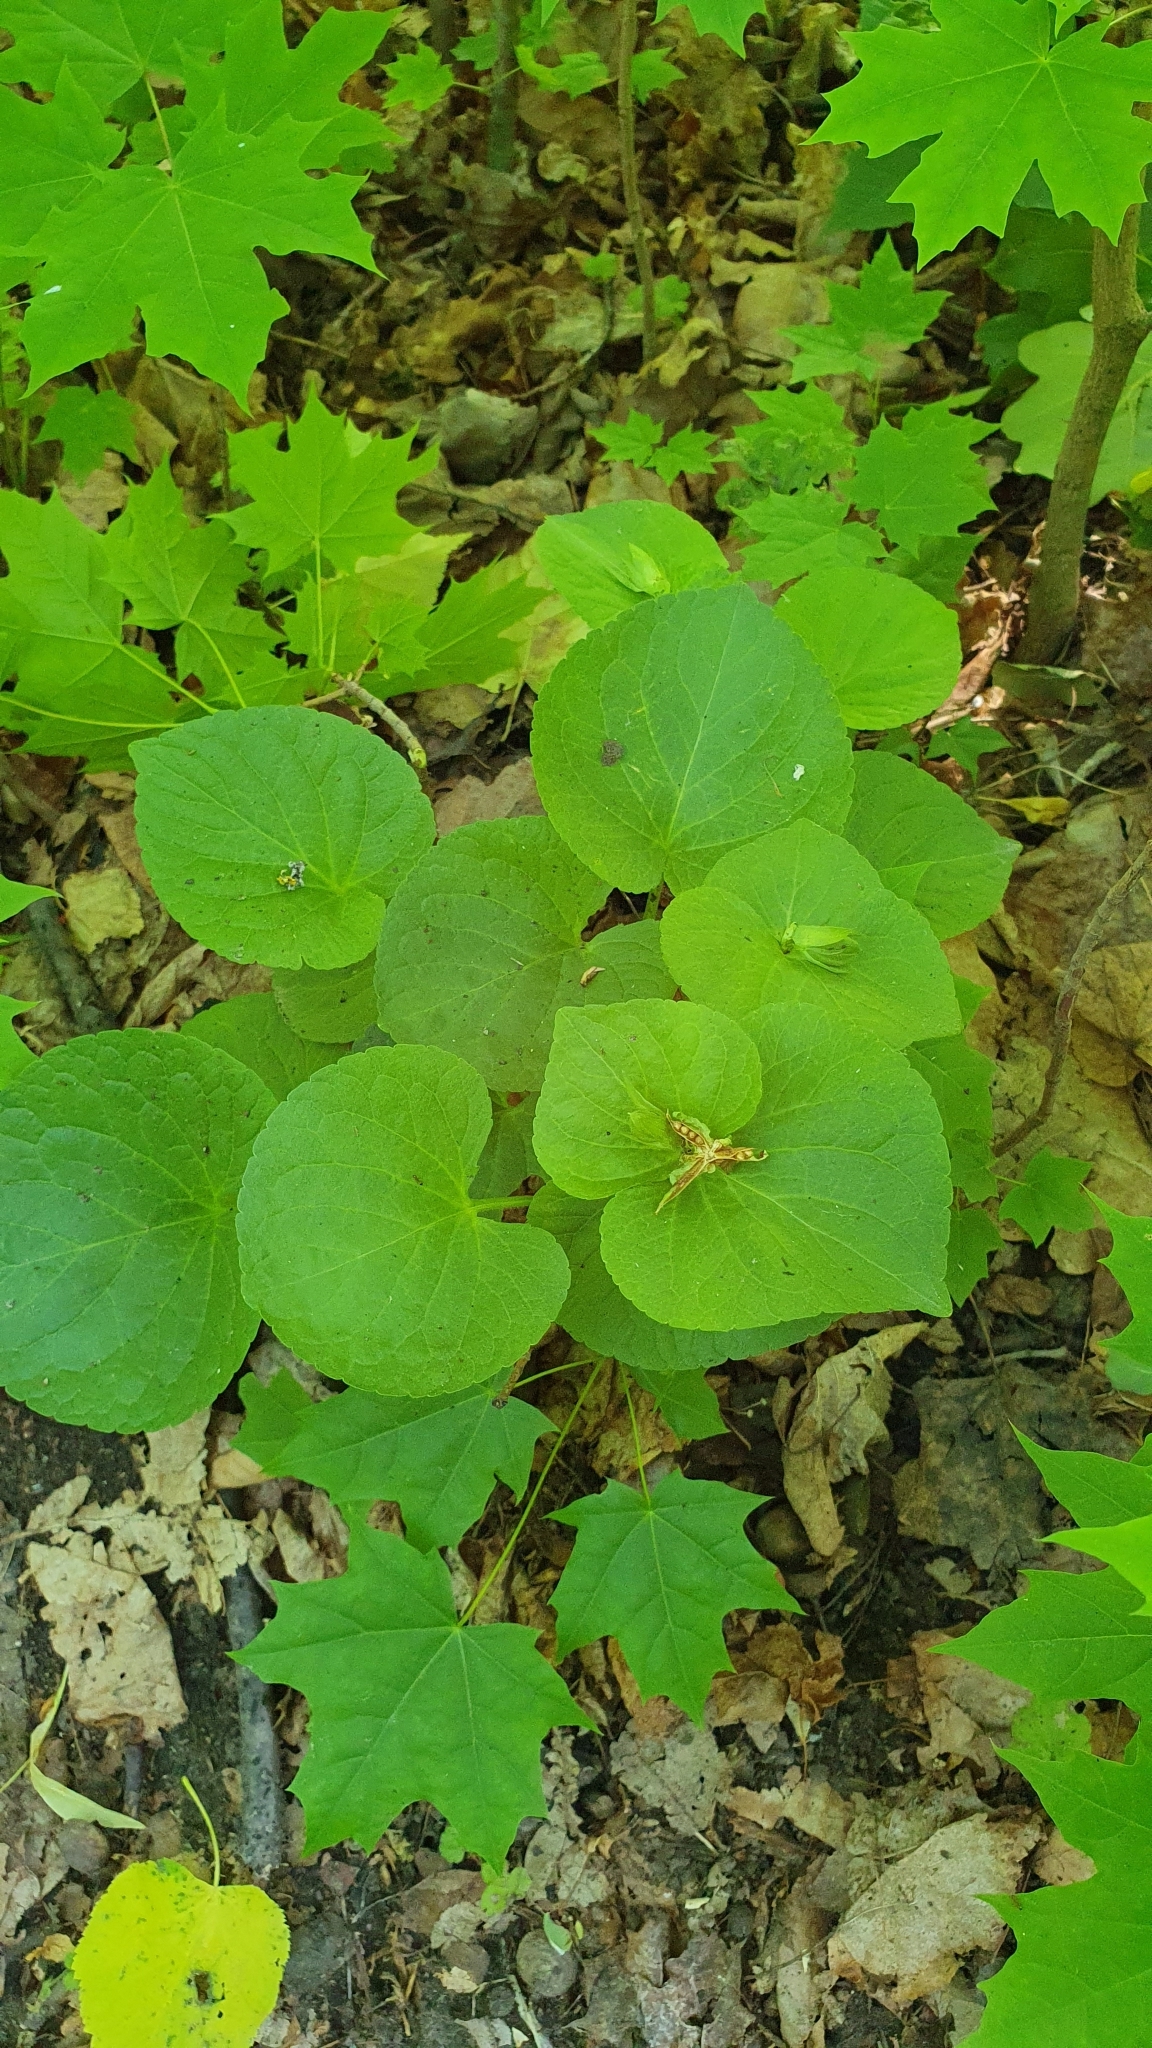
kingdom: Plantae
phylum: Tracheophyta
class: Magnoliopsida
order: Malpighiales
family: Violaceae
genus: Viola
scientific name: Viola mirabilis
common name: Wonder violet
